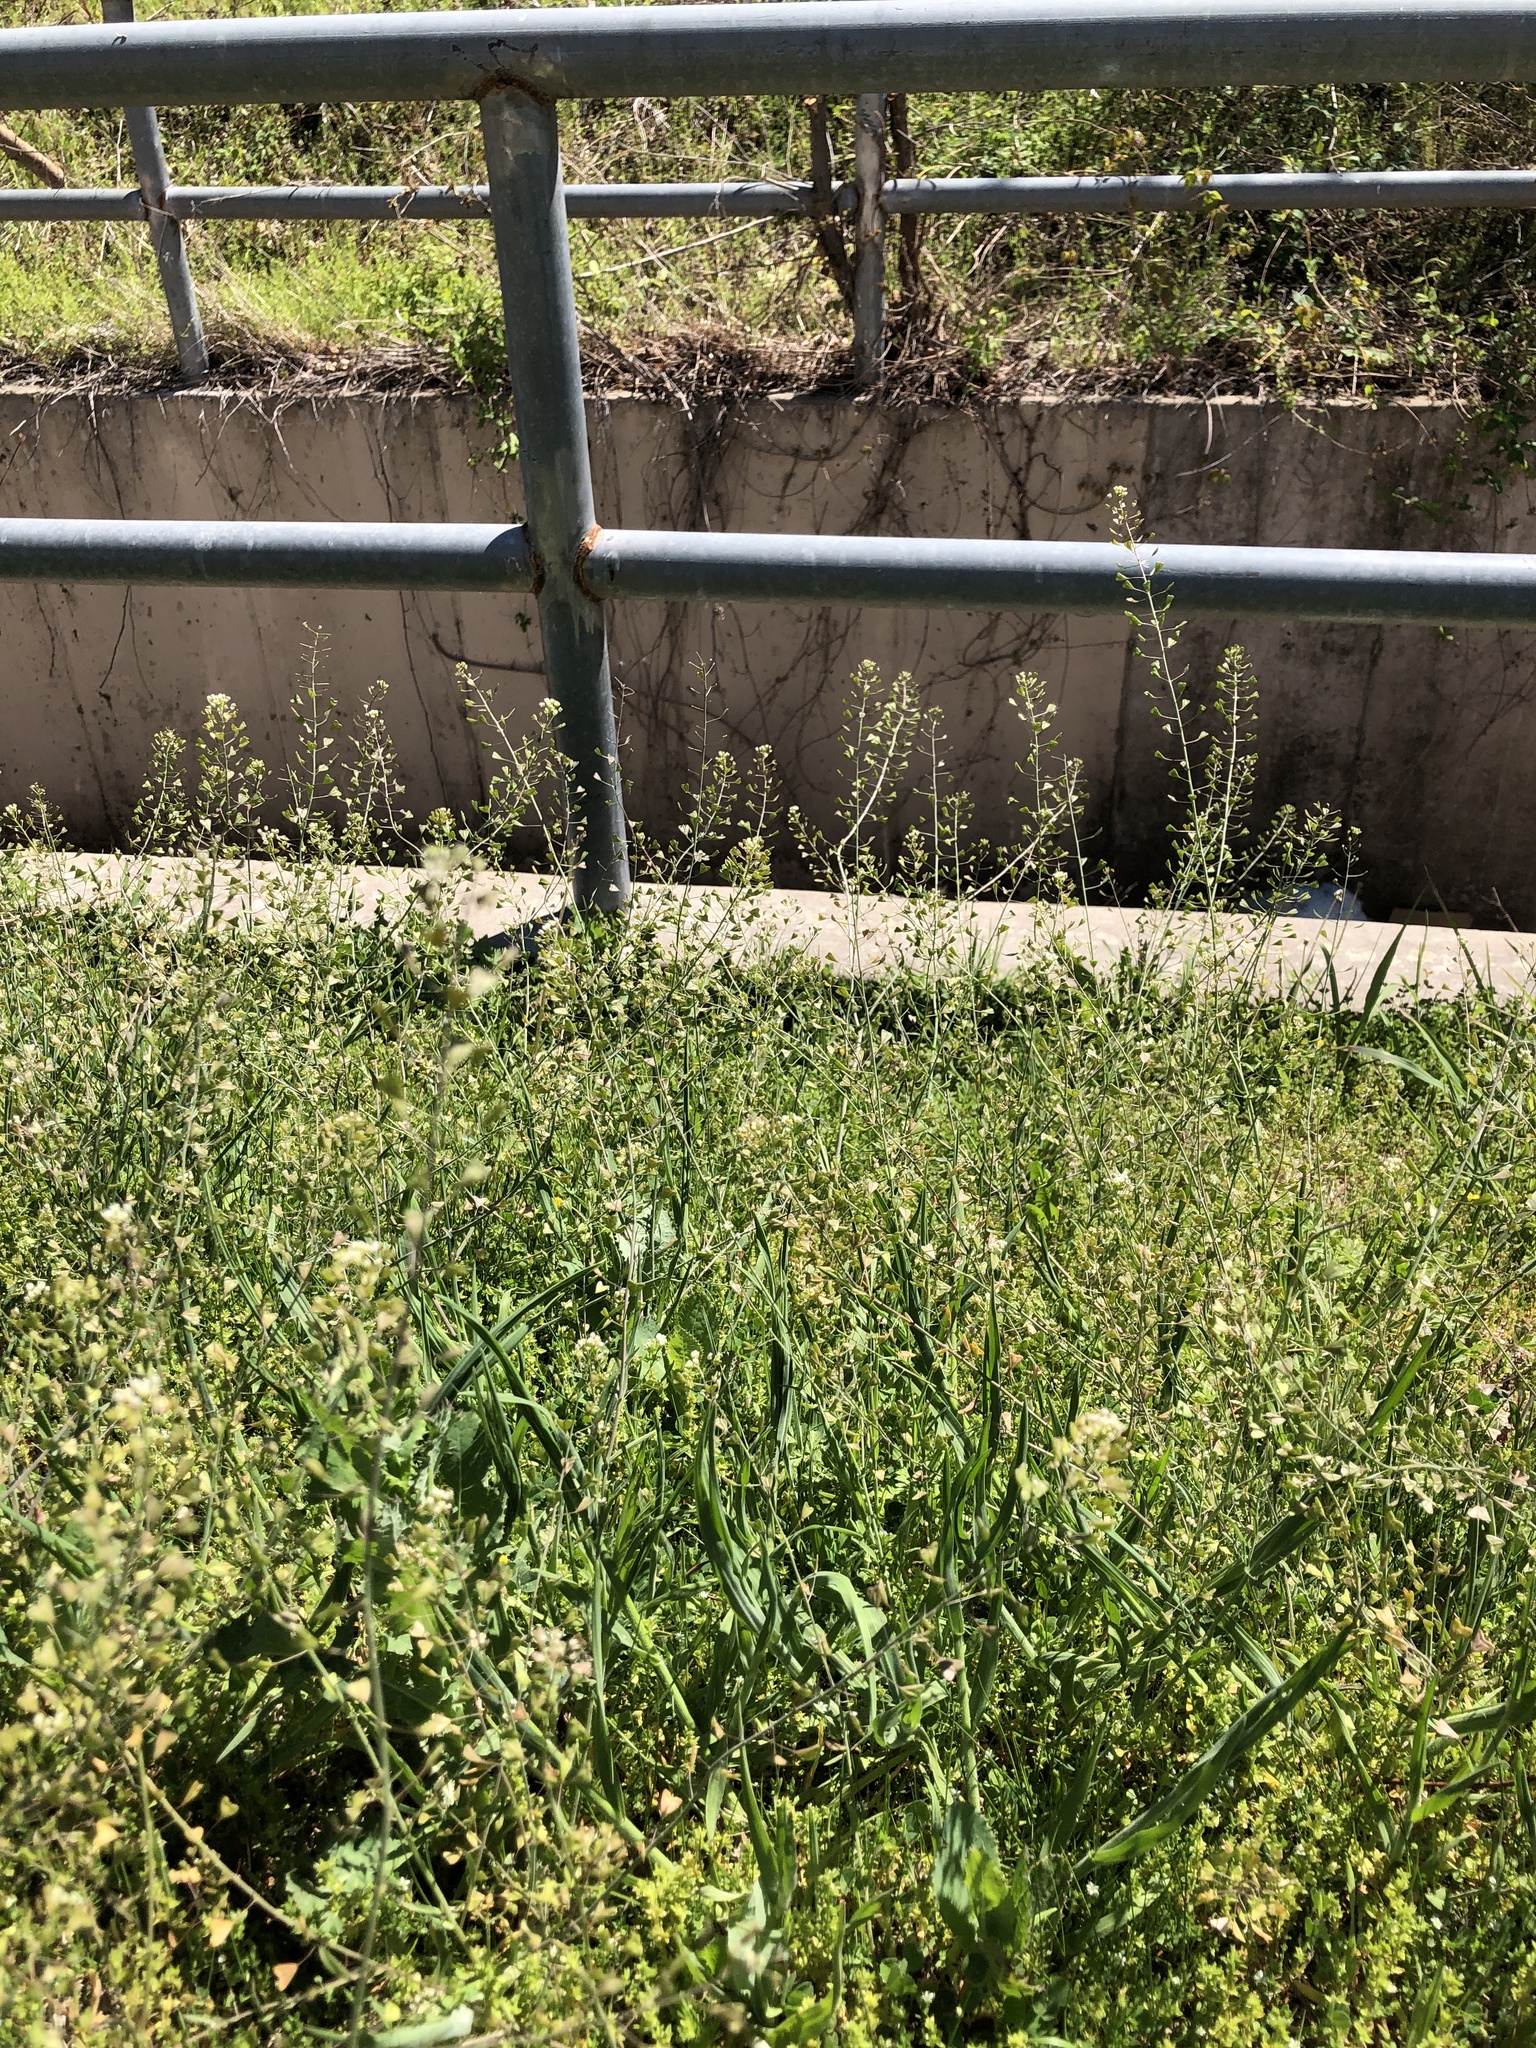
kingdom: Plantae
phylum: Tracheophyta
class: Magnoliopsida
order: Brassicales
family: Brassicaceae
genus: Capsella
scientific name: Capsella bursa-pastoris
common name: Shepherd's purse
